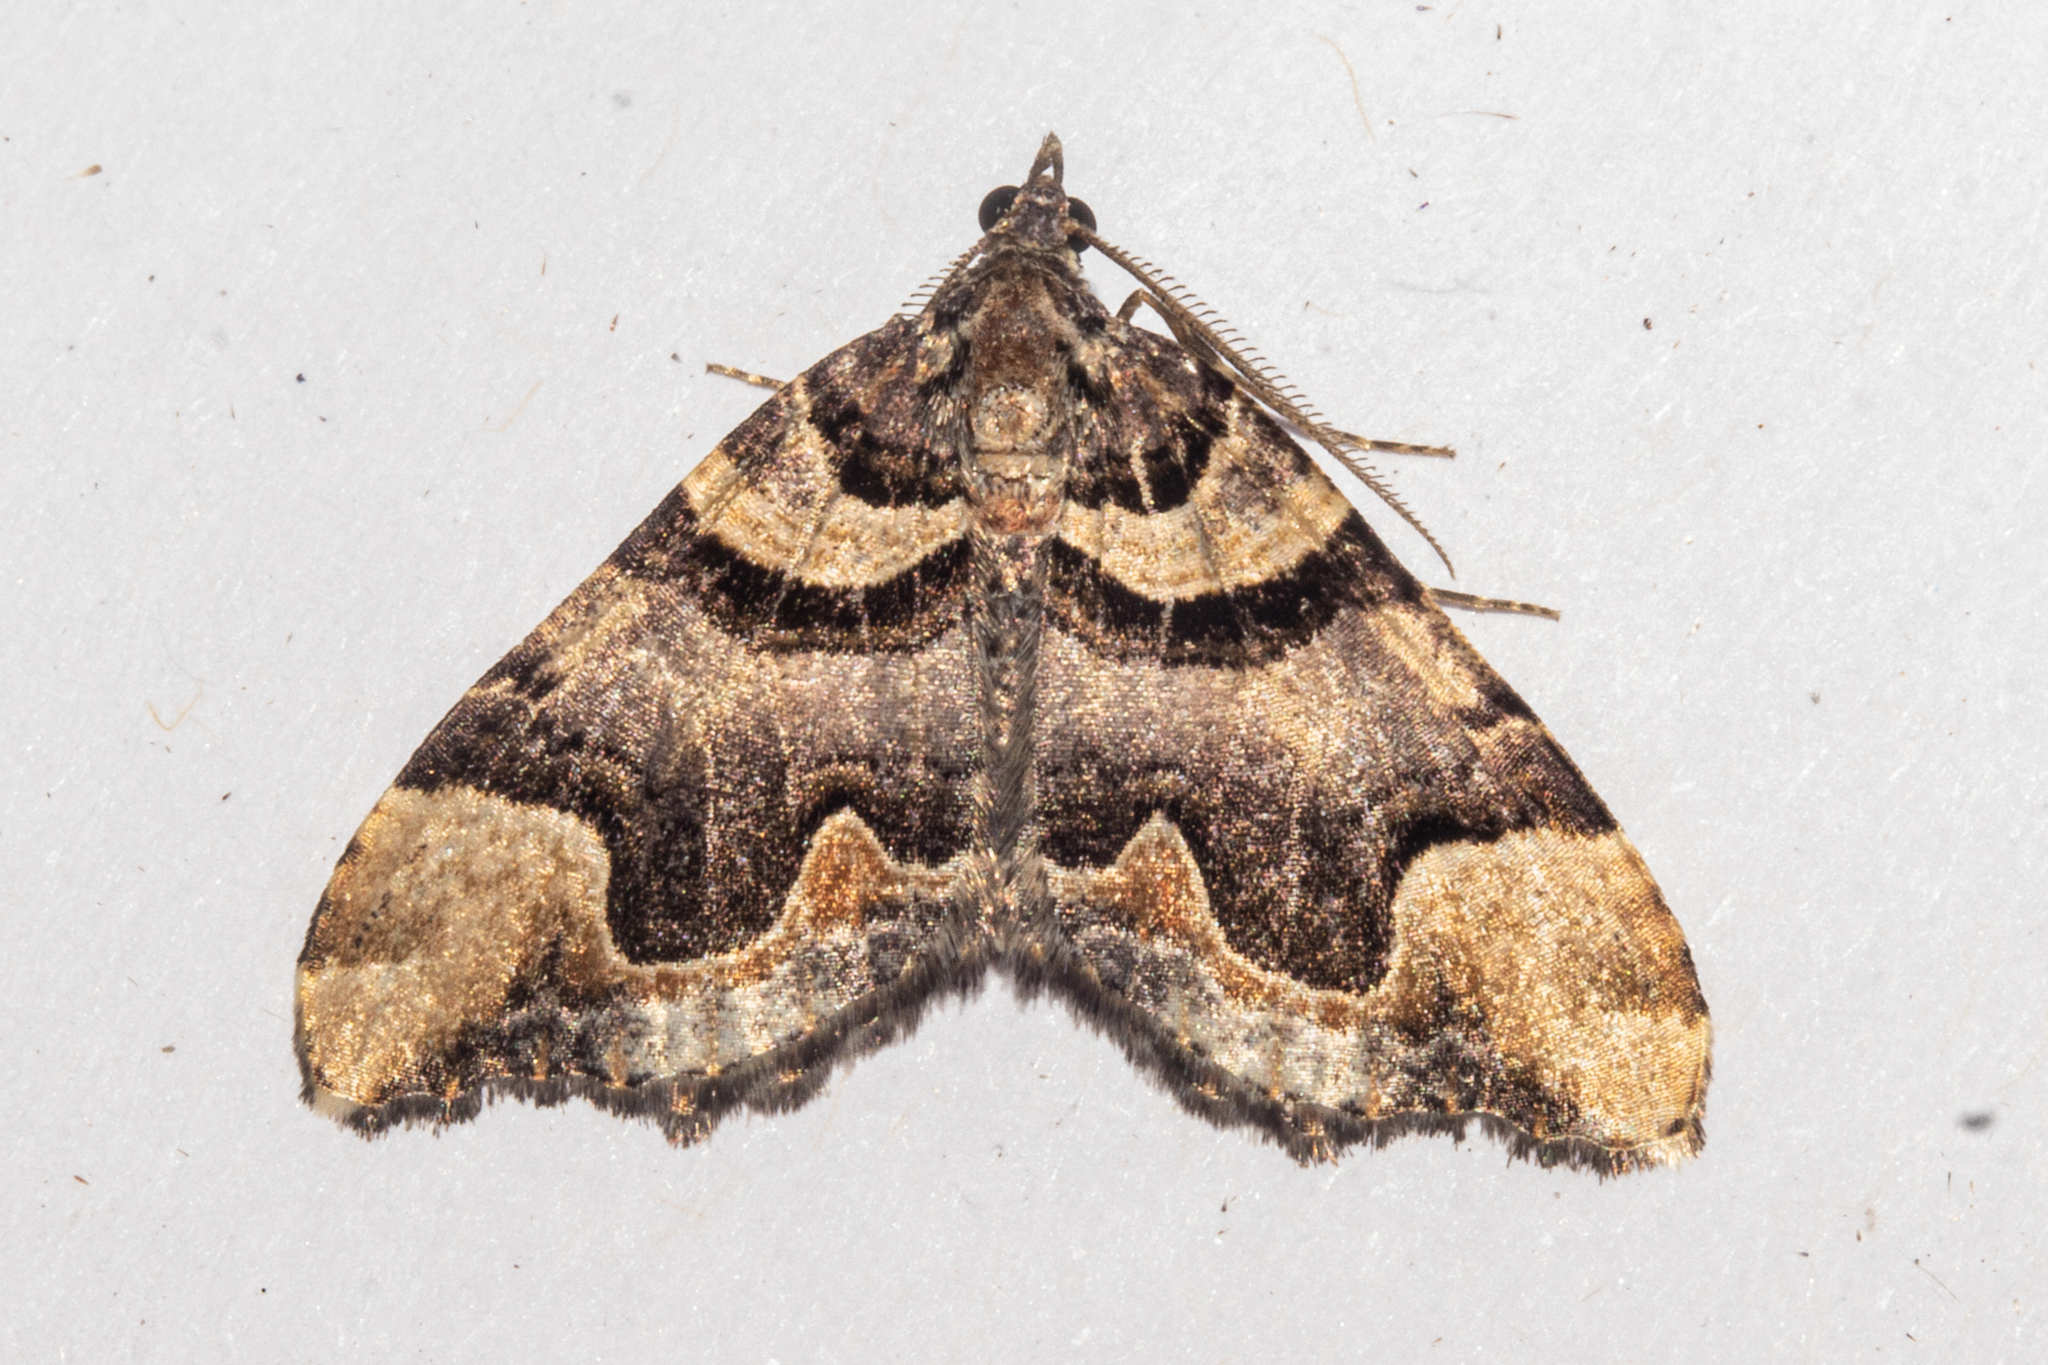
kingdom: Animalia
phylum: Arthropoda
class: Insecta
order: Lepidoptera
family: Geometridae
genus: Asaphodes
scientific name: Asaphodes chlamydota
